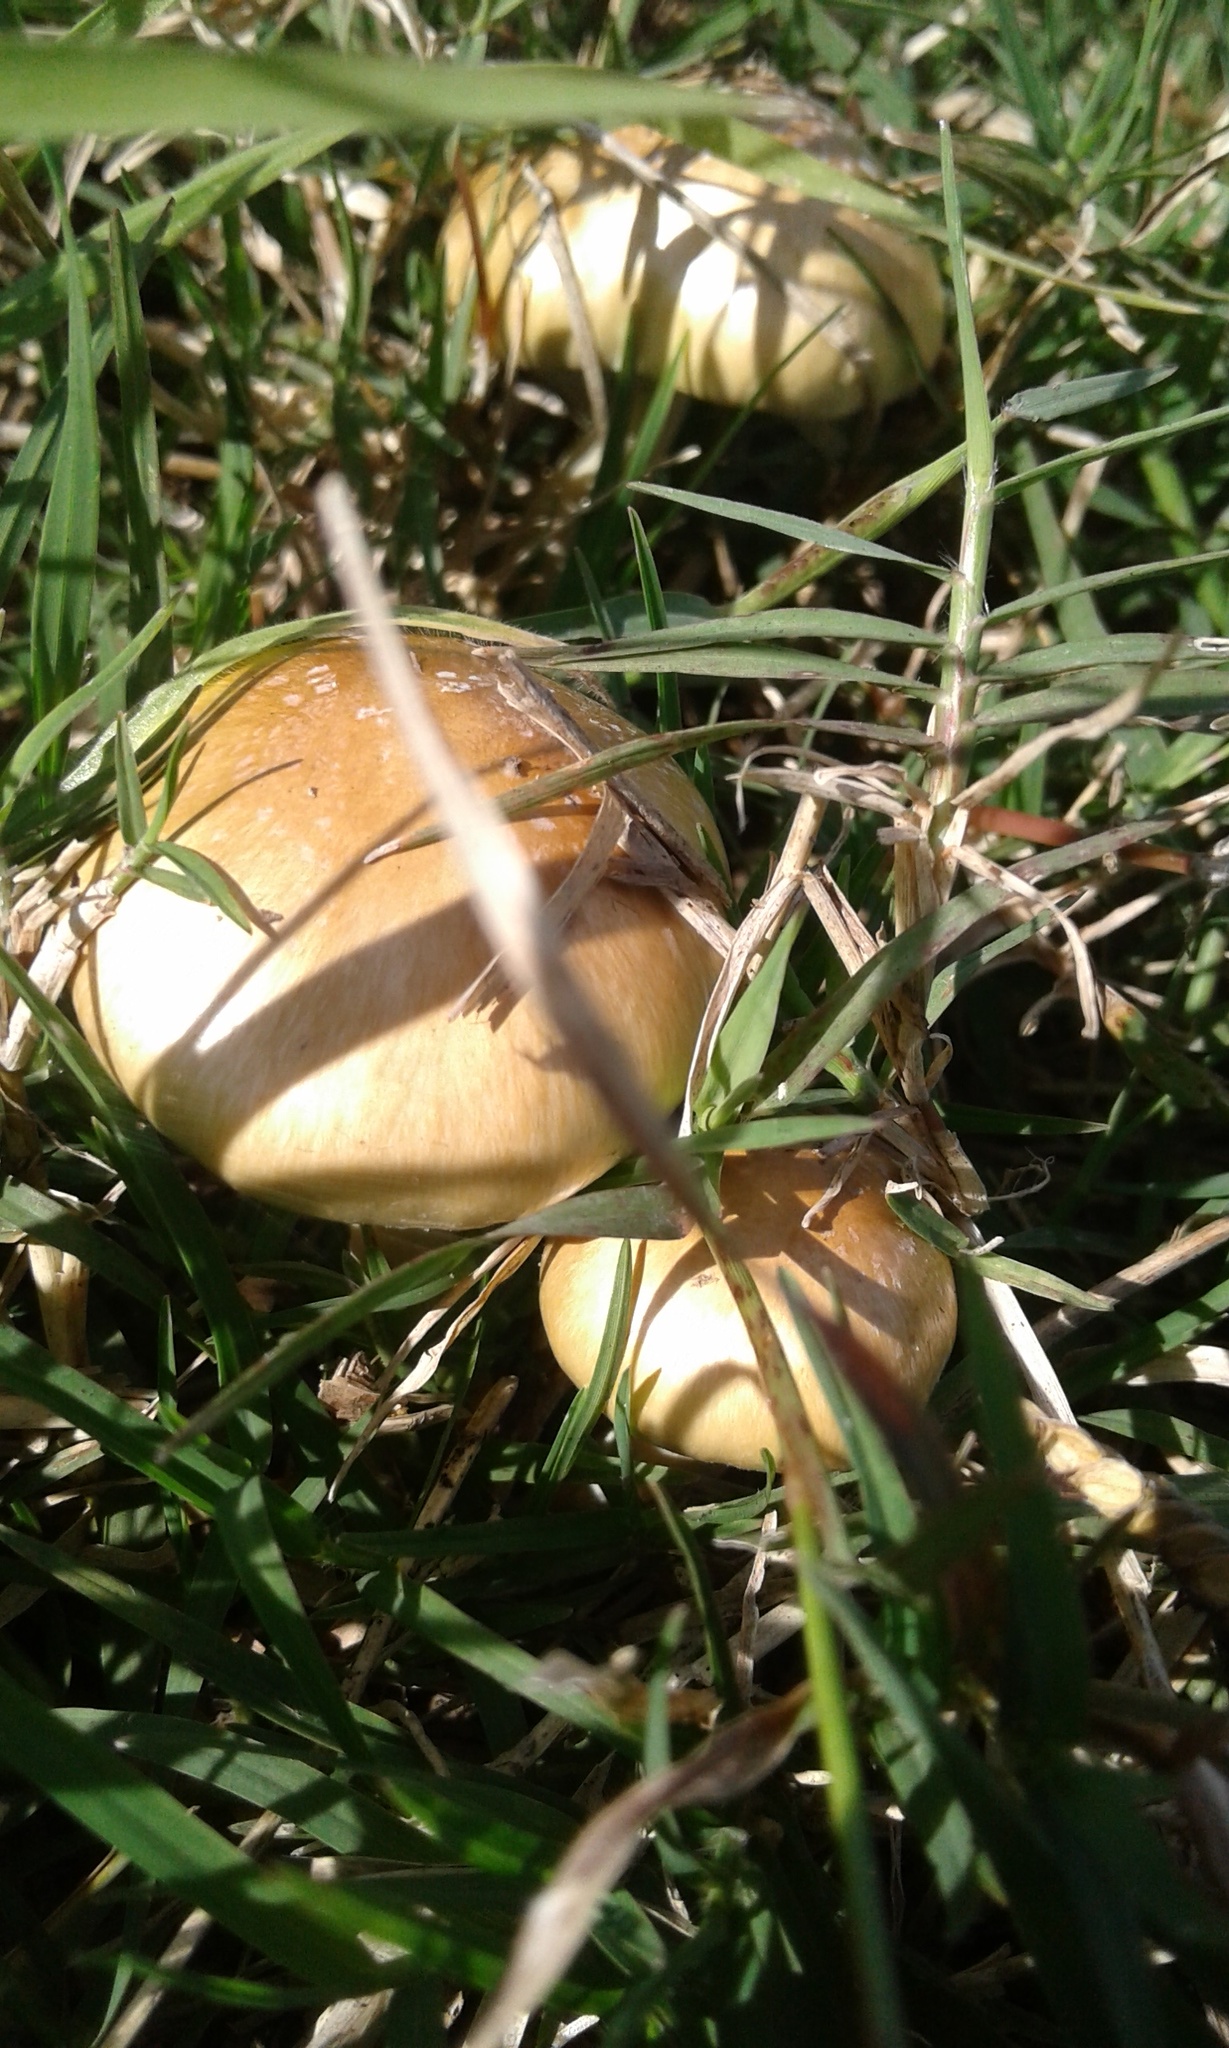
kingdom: Fungi
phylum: Basidiomycota
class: Agaricomycetes
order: Agaricales
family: Hymenogastraceae
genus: Psilocybe
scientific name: Psilocybe cubensis
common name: Golden brownie
